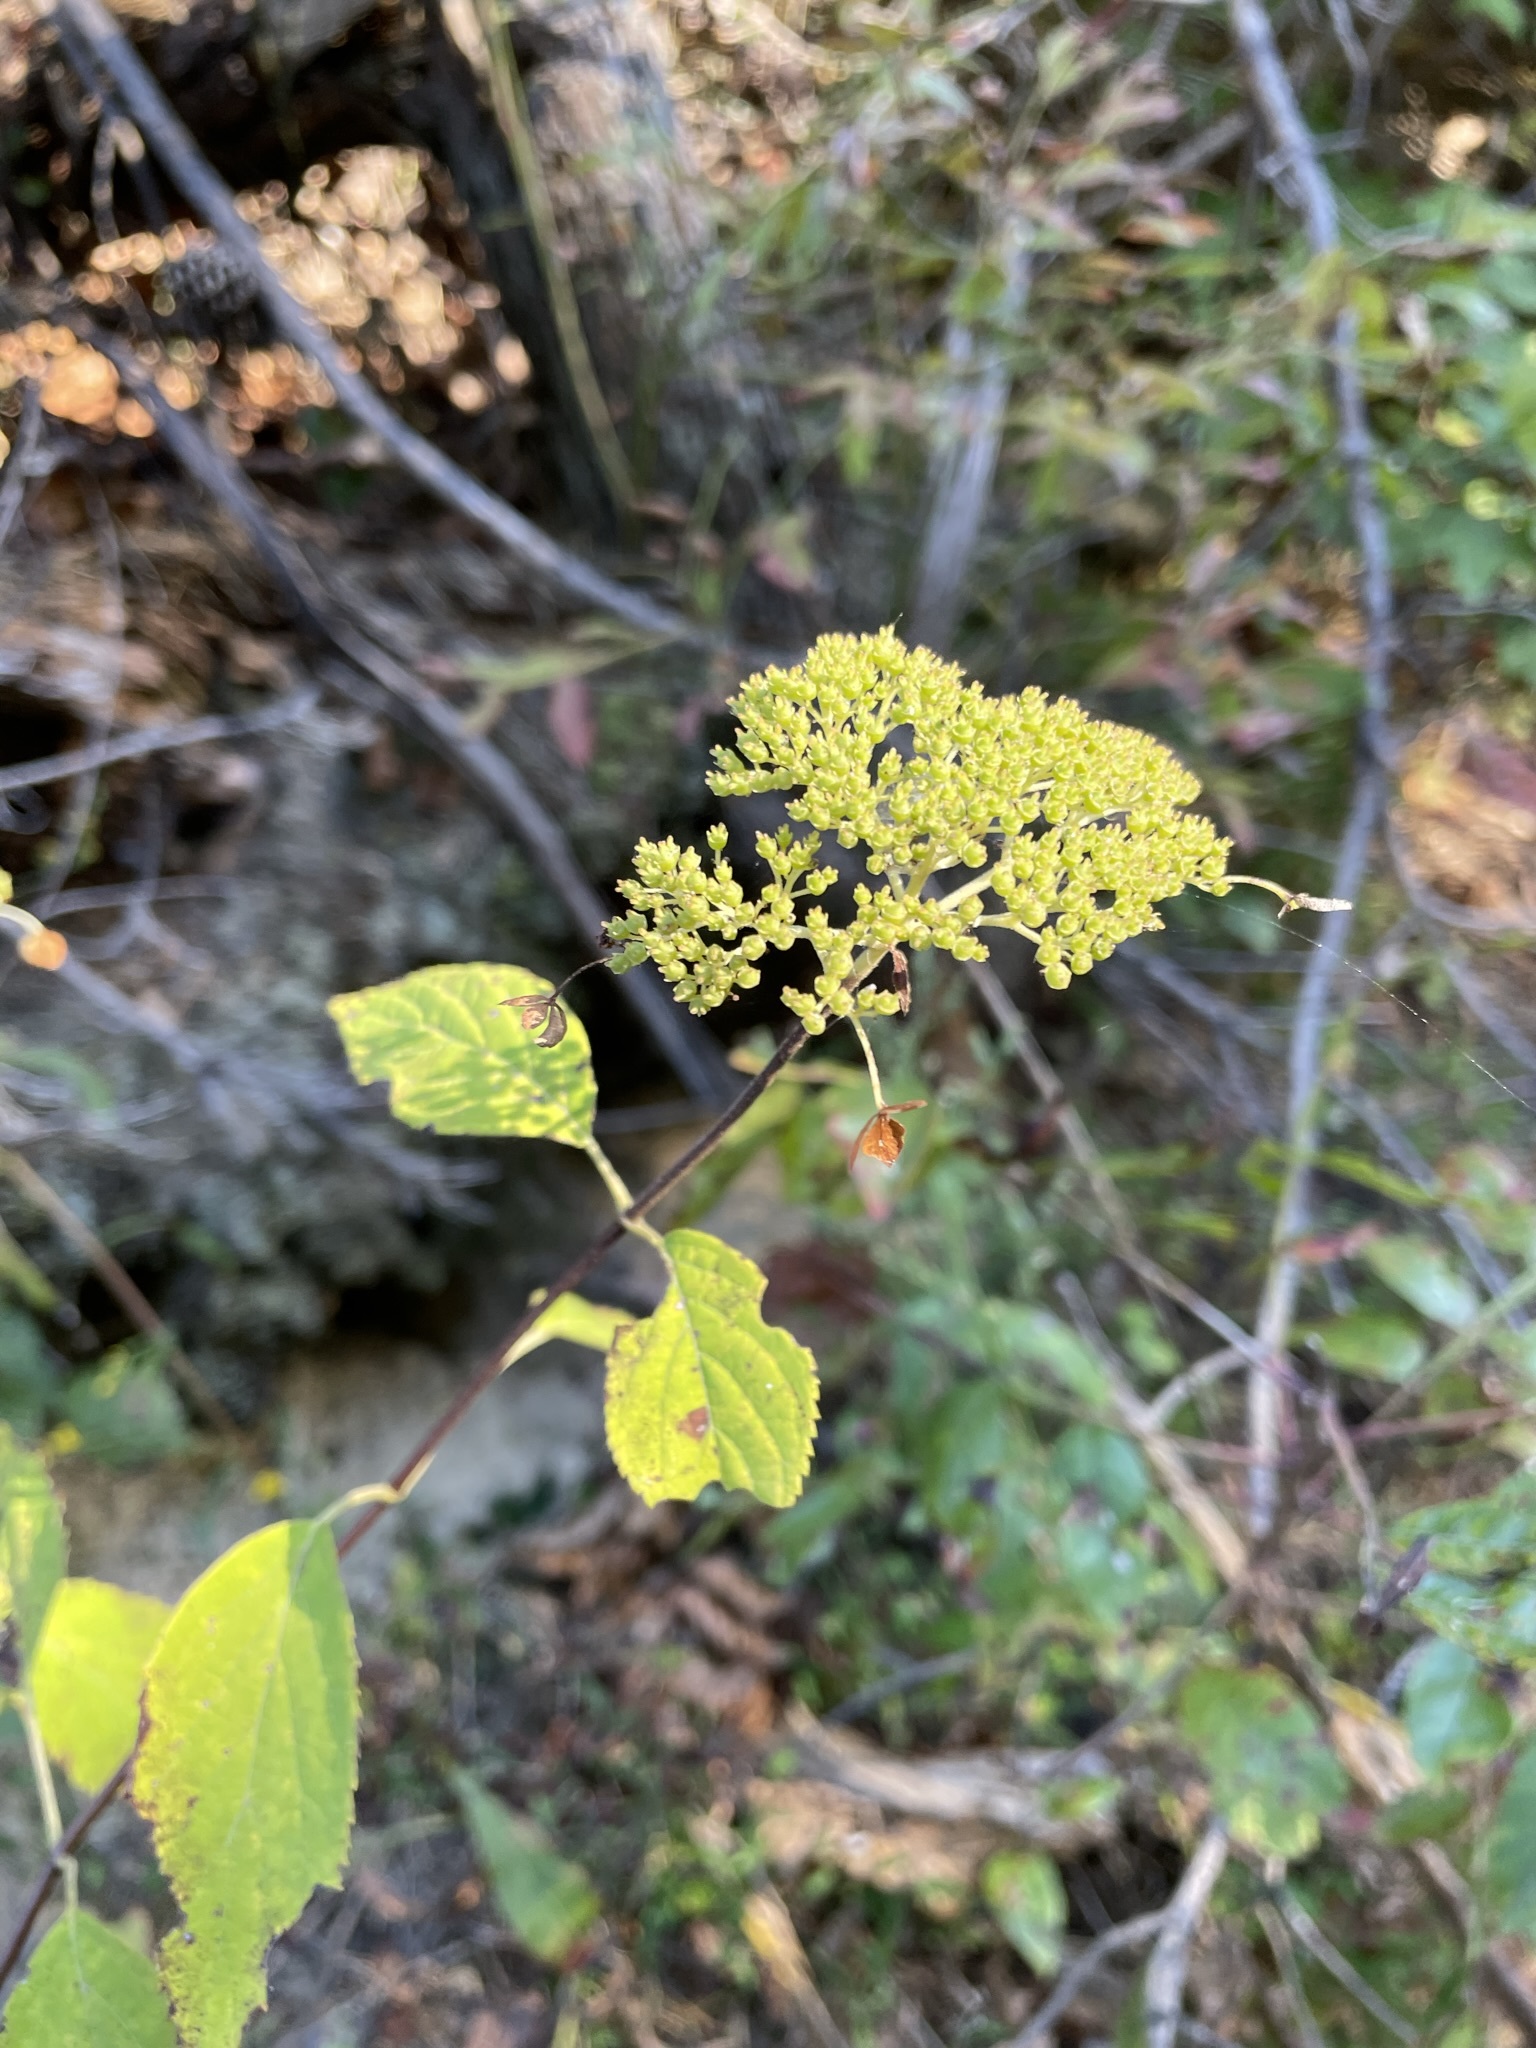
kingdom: Plantae
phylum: Tracheophyta
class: Magnoliopsida
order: Cornales
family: Hydrangeaceae
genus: Hydrangea
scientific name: Hydrangea arborescens
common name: Sevenbark
